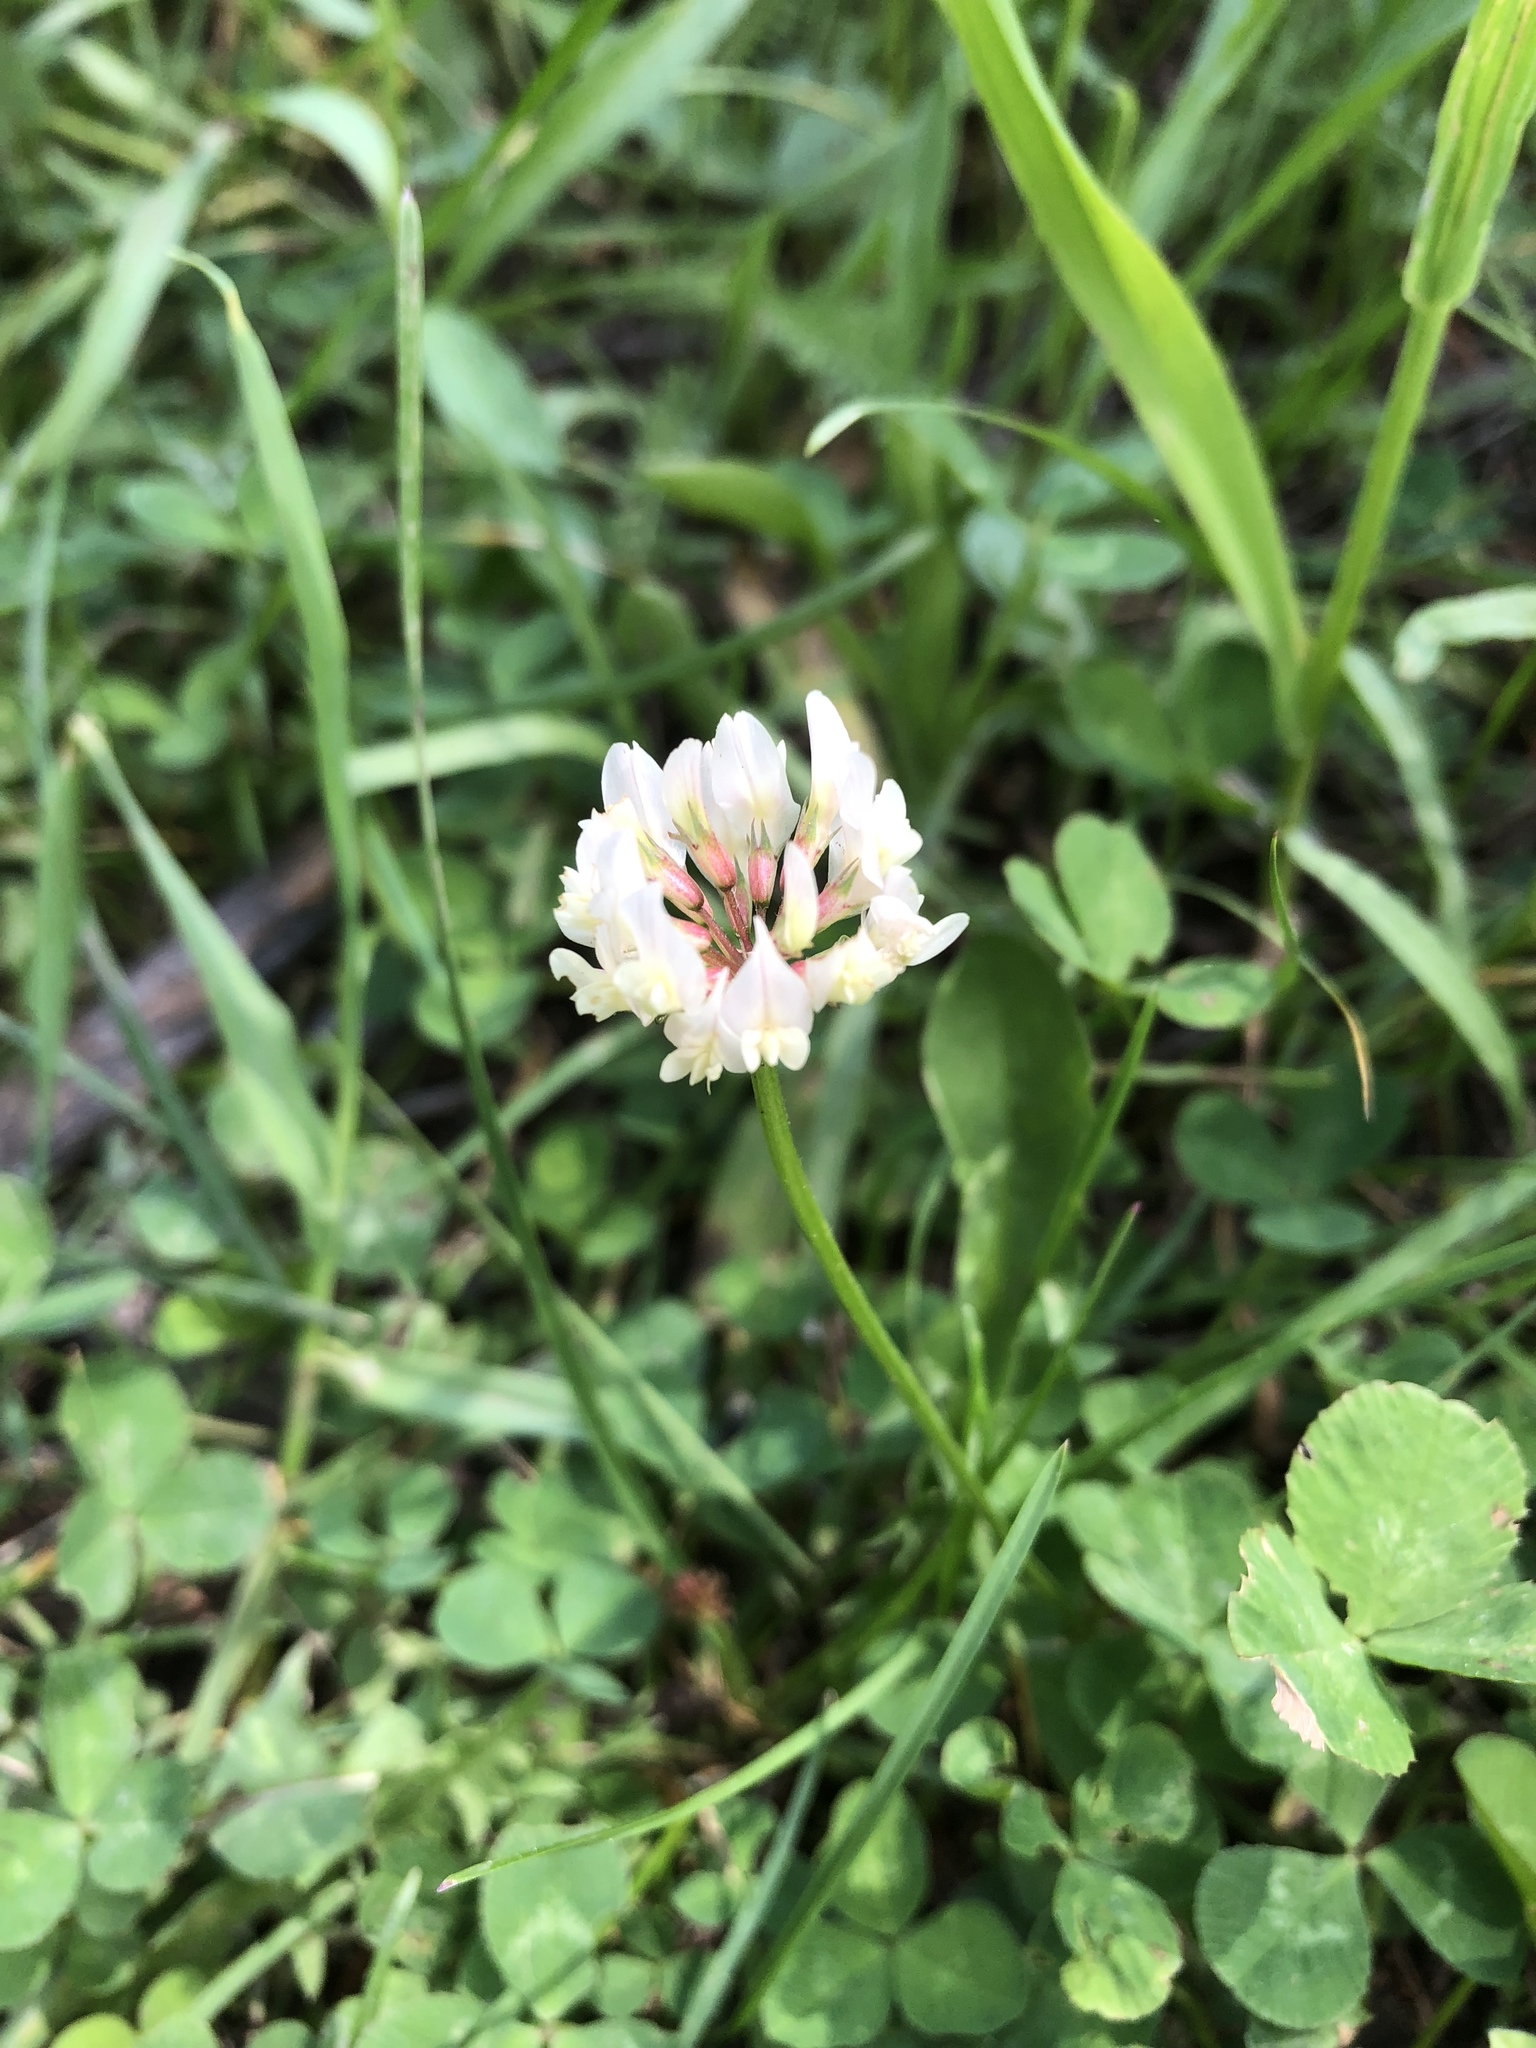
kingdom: Plantae
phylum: Tracheophyta
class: Magnoliopsida
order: Fabales
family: Fabaceae
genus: Trifolium
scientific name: Trifolium repens
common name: White clover
